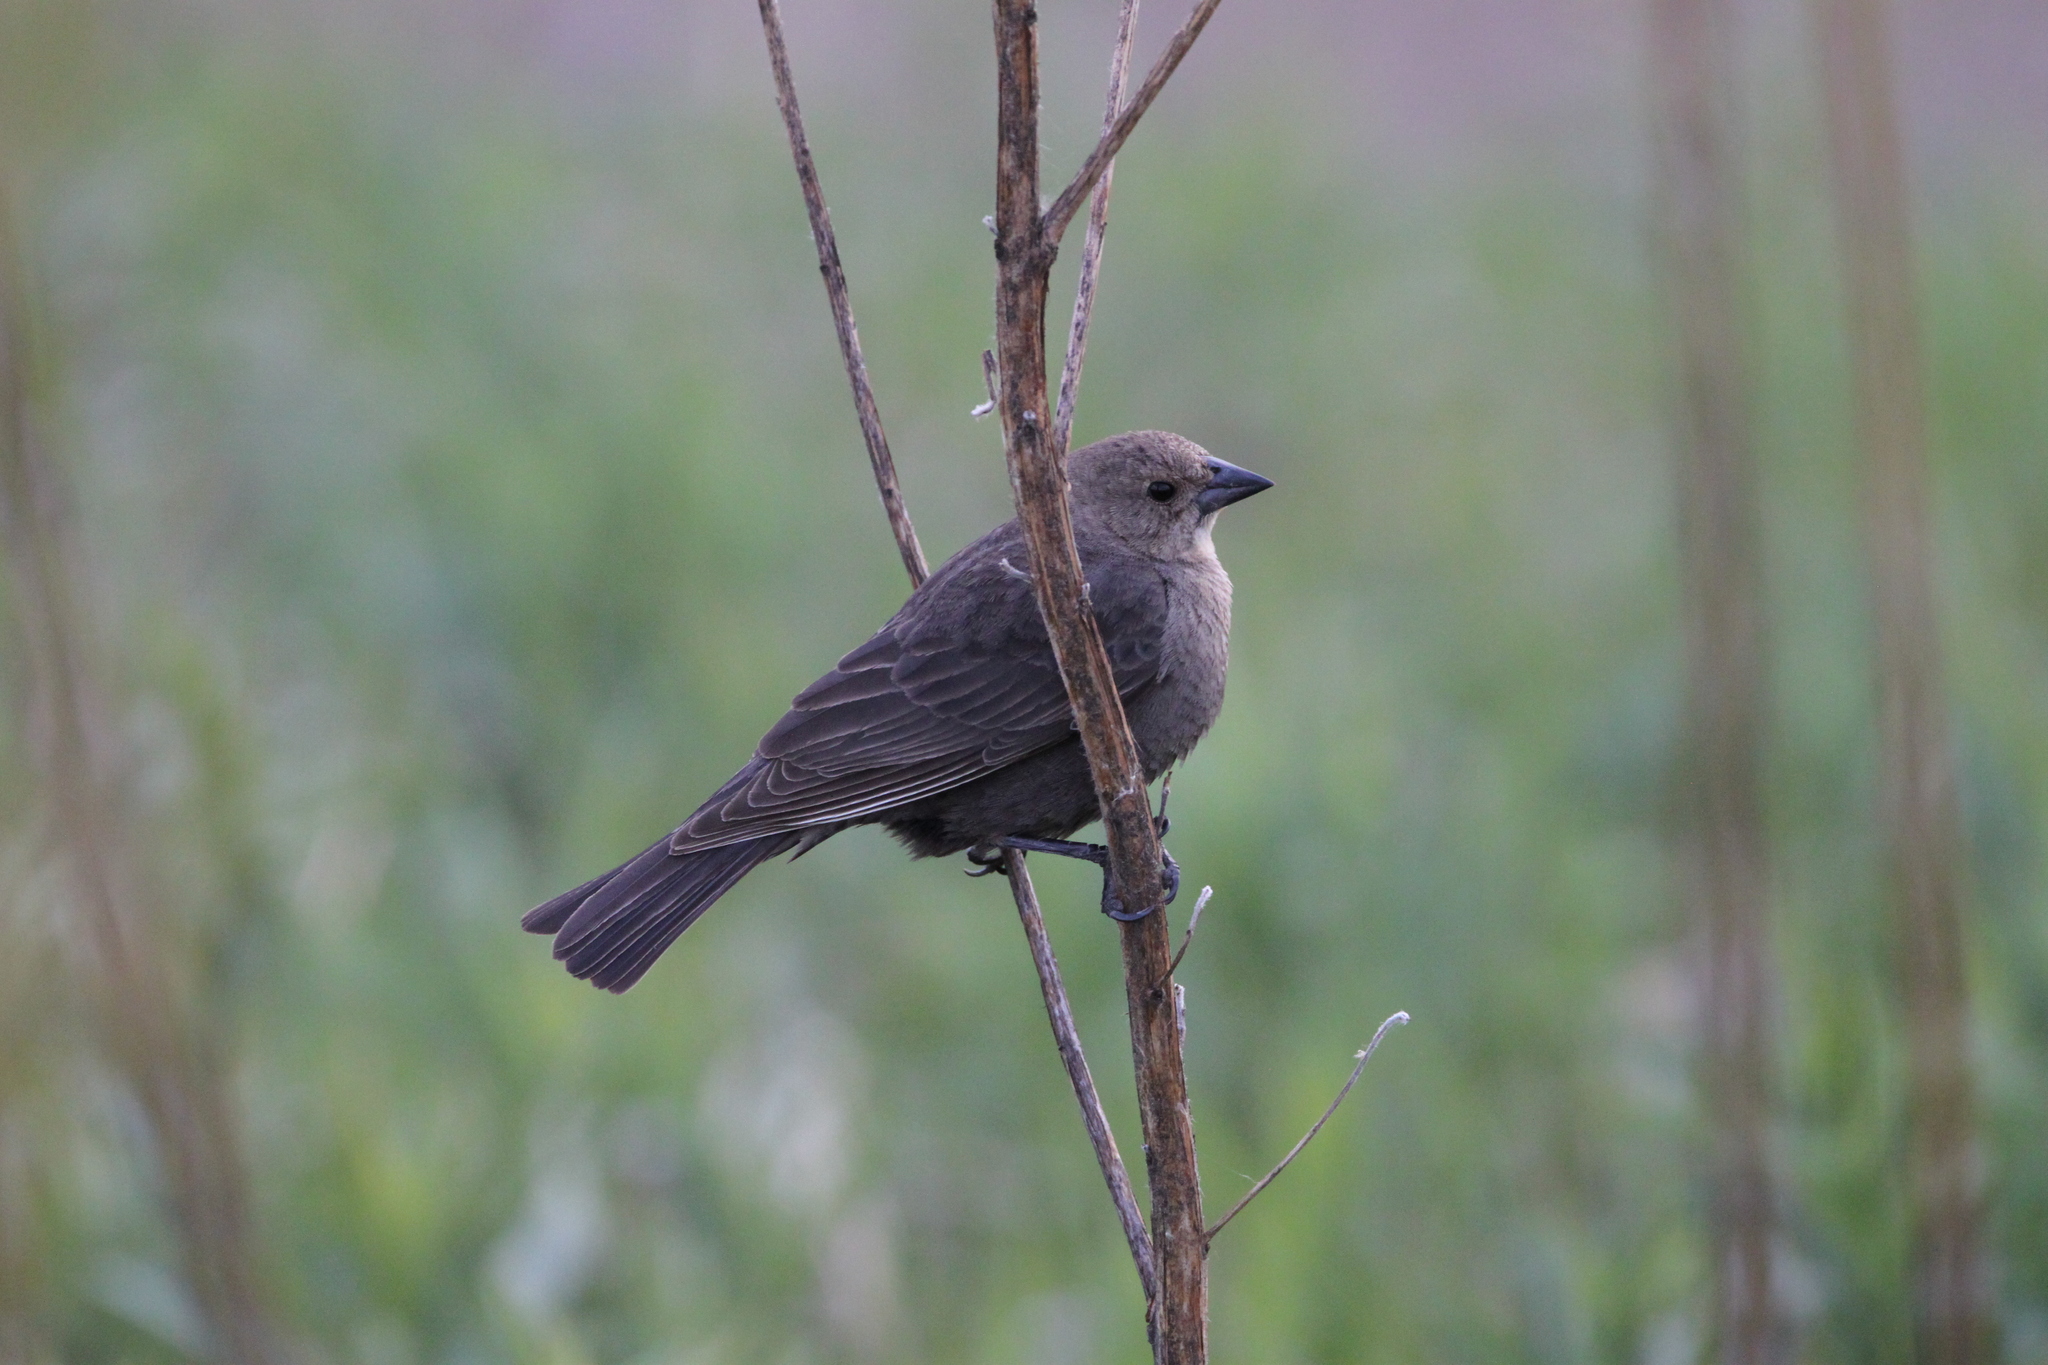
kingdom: Animalia
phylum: Chordata
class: Aves
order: Passeriformes
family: Icteridae
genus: Molothrus
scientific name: Molothrus ater
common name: Brown-headed cowbird
